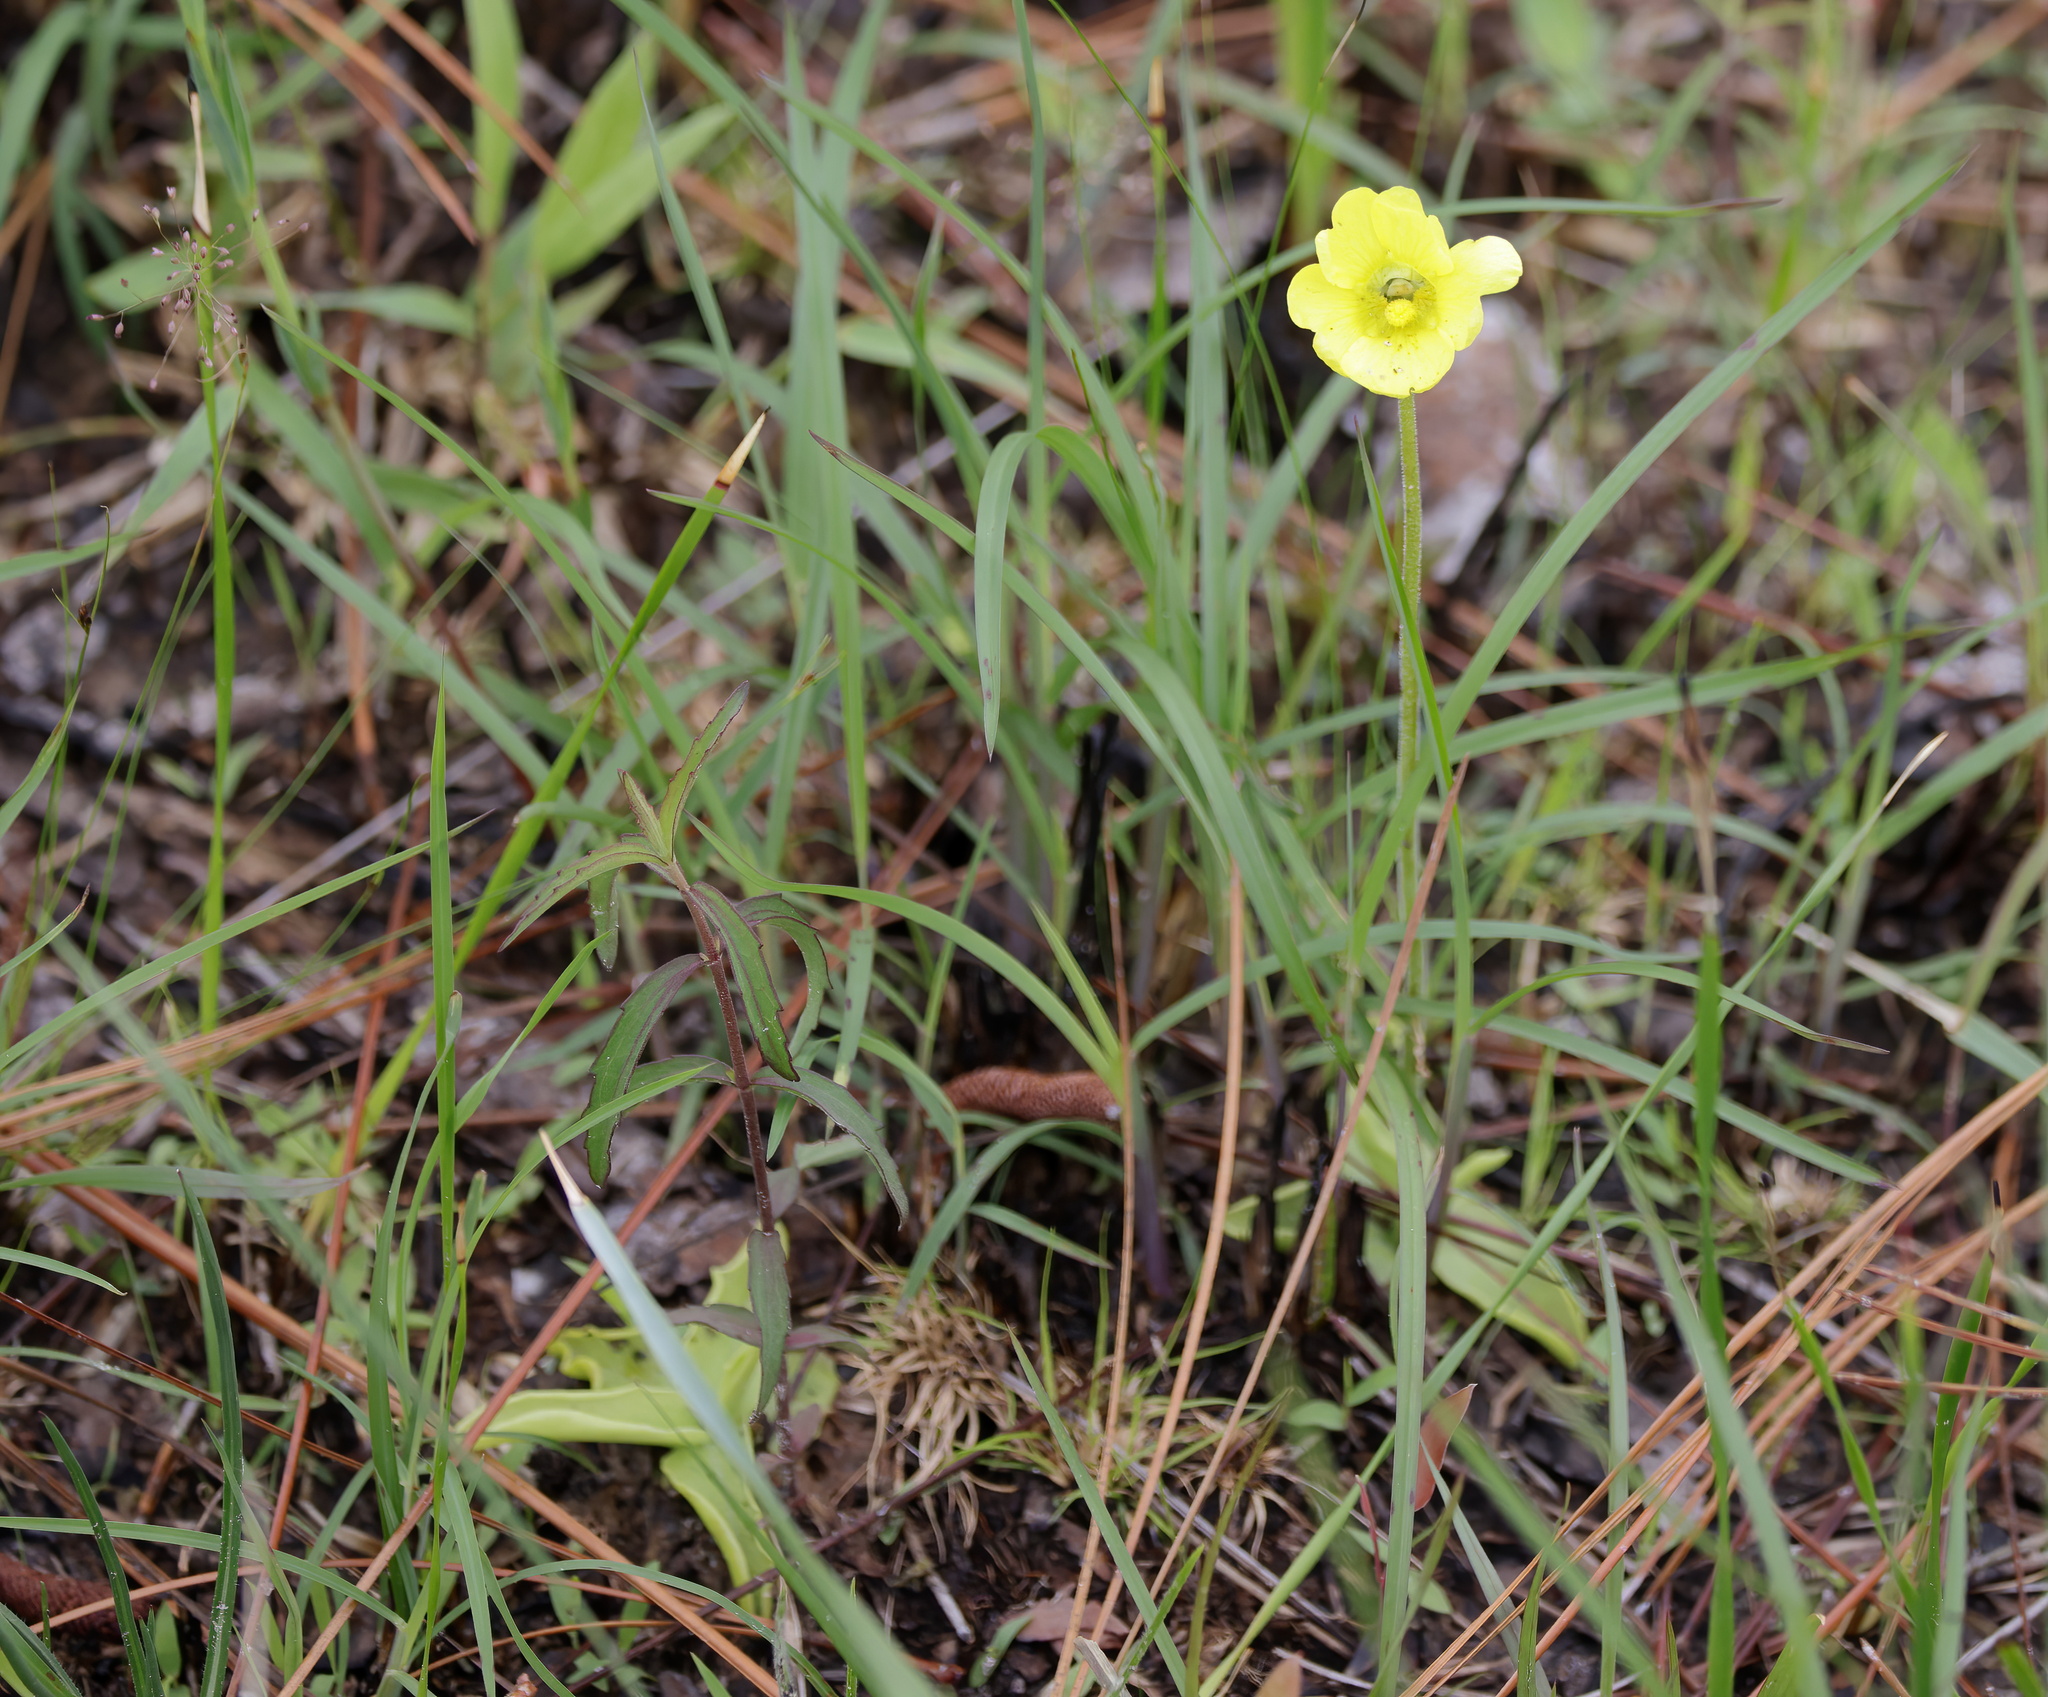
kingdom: Plantae
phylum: Tracheophyta
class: Magnoliopsida
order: Lamiales
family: Lentibulariaceae
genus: Pinguicula
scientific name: Pinguicula lutea
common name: Yellow butterwort
